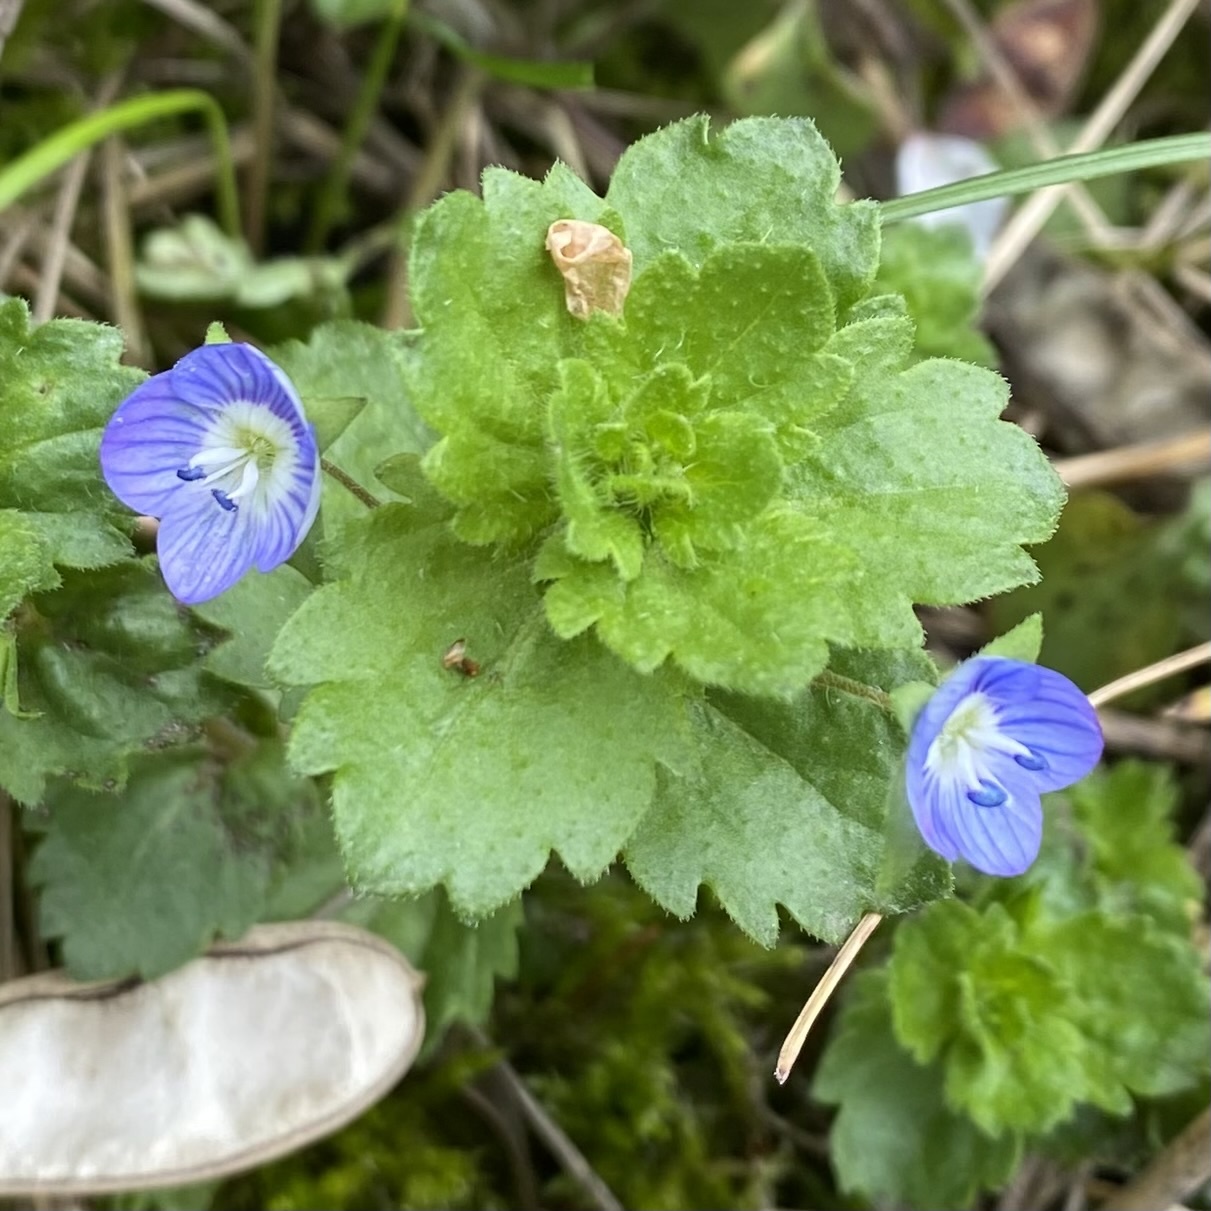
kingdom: Plantae
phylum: Tracheophyta
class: Magnoliopsida
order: Lamiales
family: Plantaginaceae
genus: Veronica
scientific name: Veronica persica
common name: Common field-speedwell
